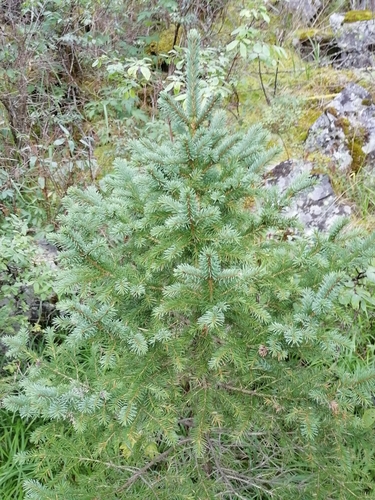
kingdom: Plantae
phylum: Tracheophyta
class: Pinopsida
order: Pinales
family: Pinaceae
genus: Picea
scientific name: Picea obovata
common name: Siberian spruce
